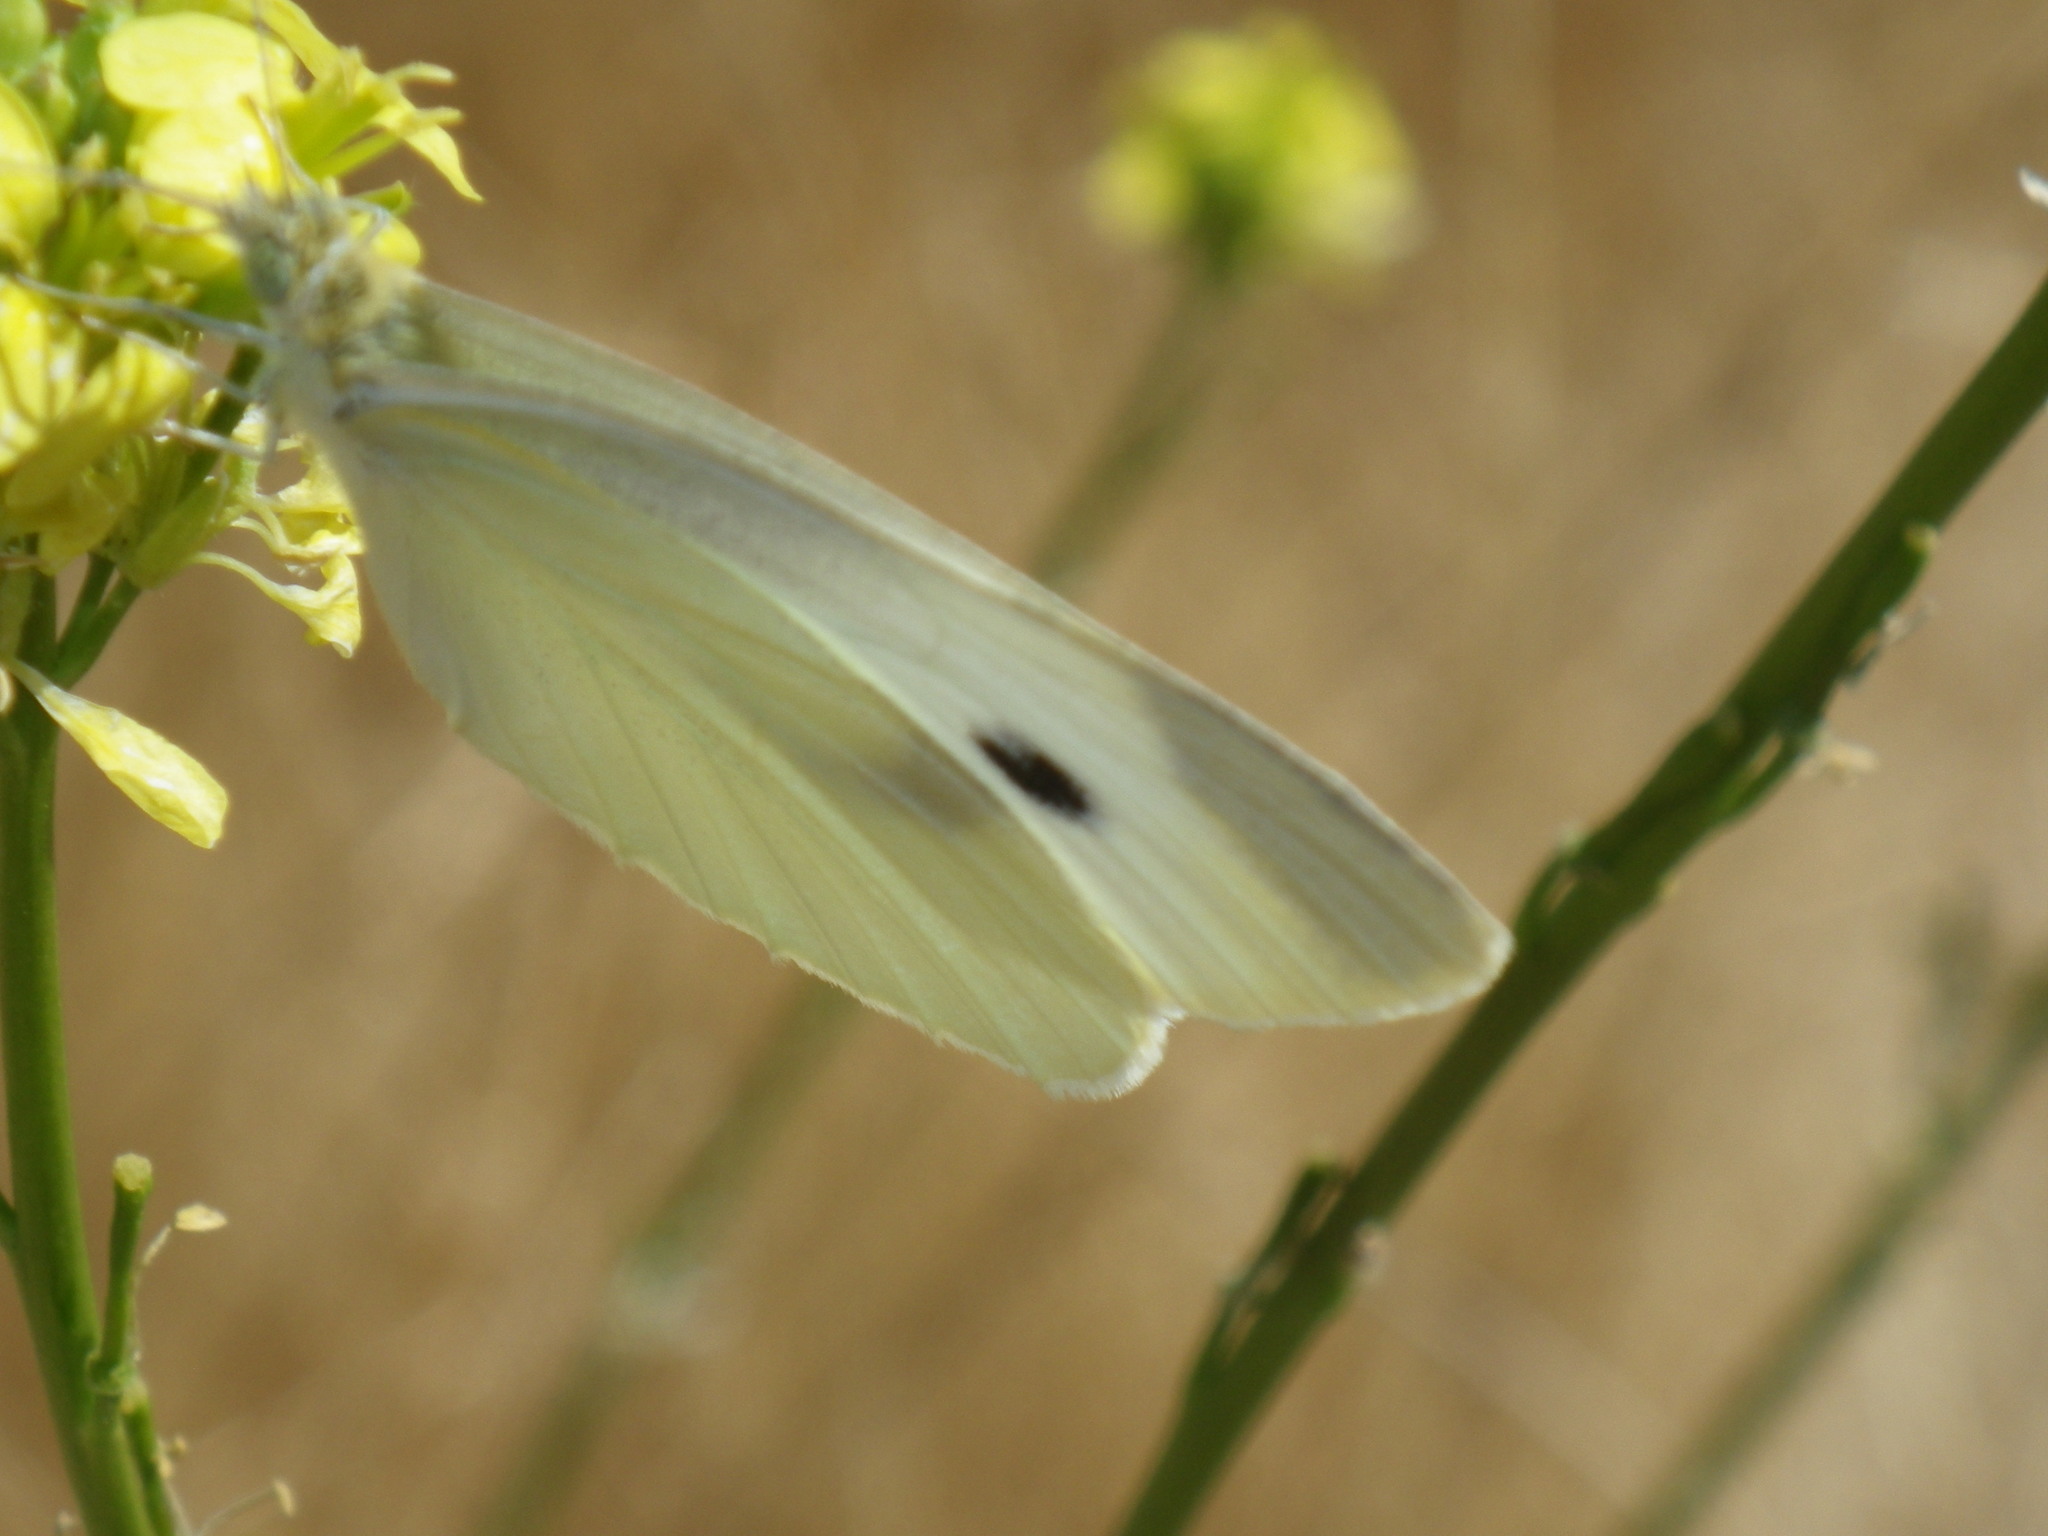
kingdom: Animalia
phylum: Arthropoda
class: Insecta
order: Lepidoptera
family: Pieridae
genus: Pieris
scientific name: Pieris rapae
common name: Small white
